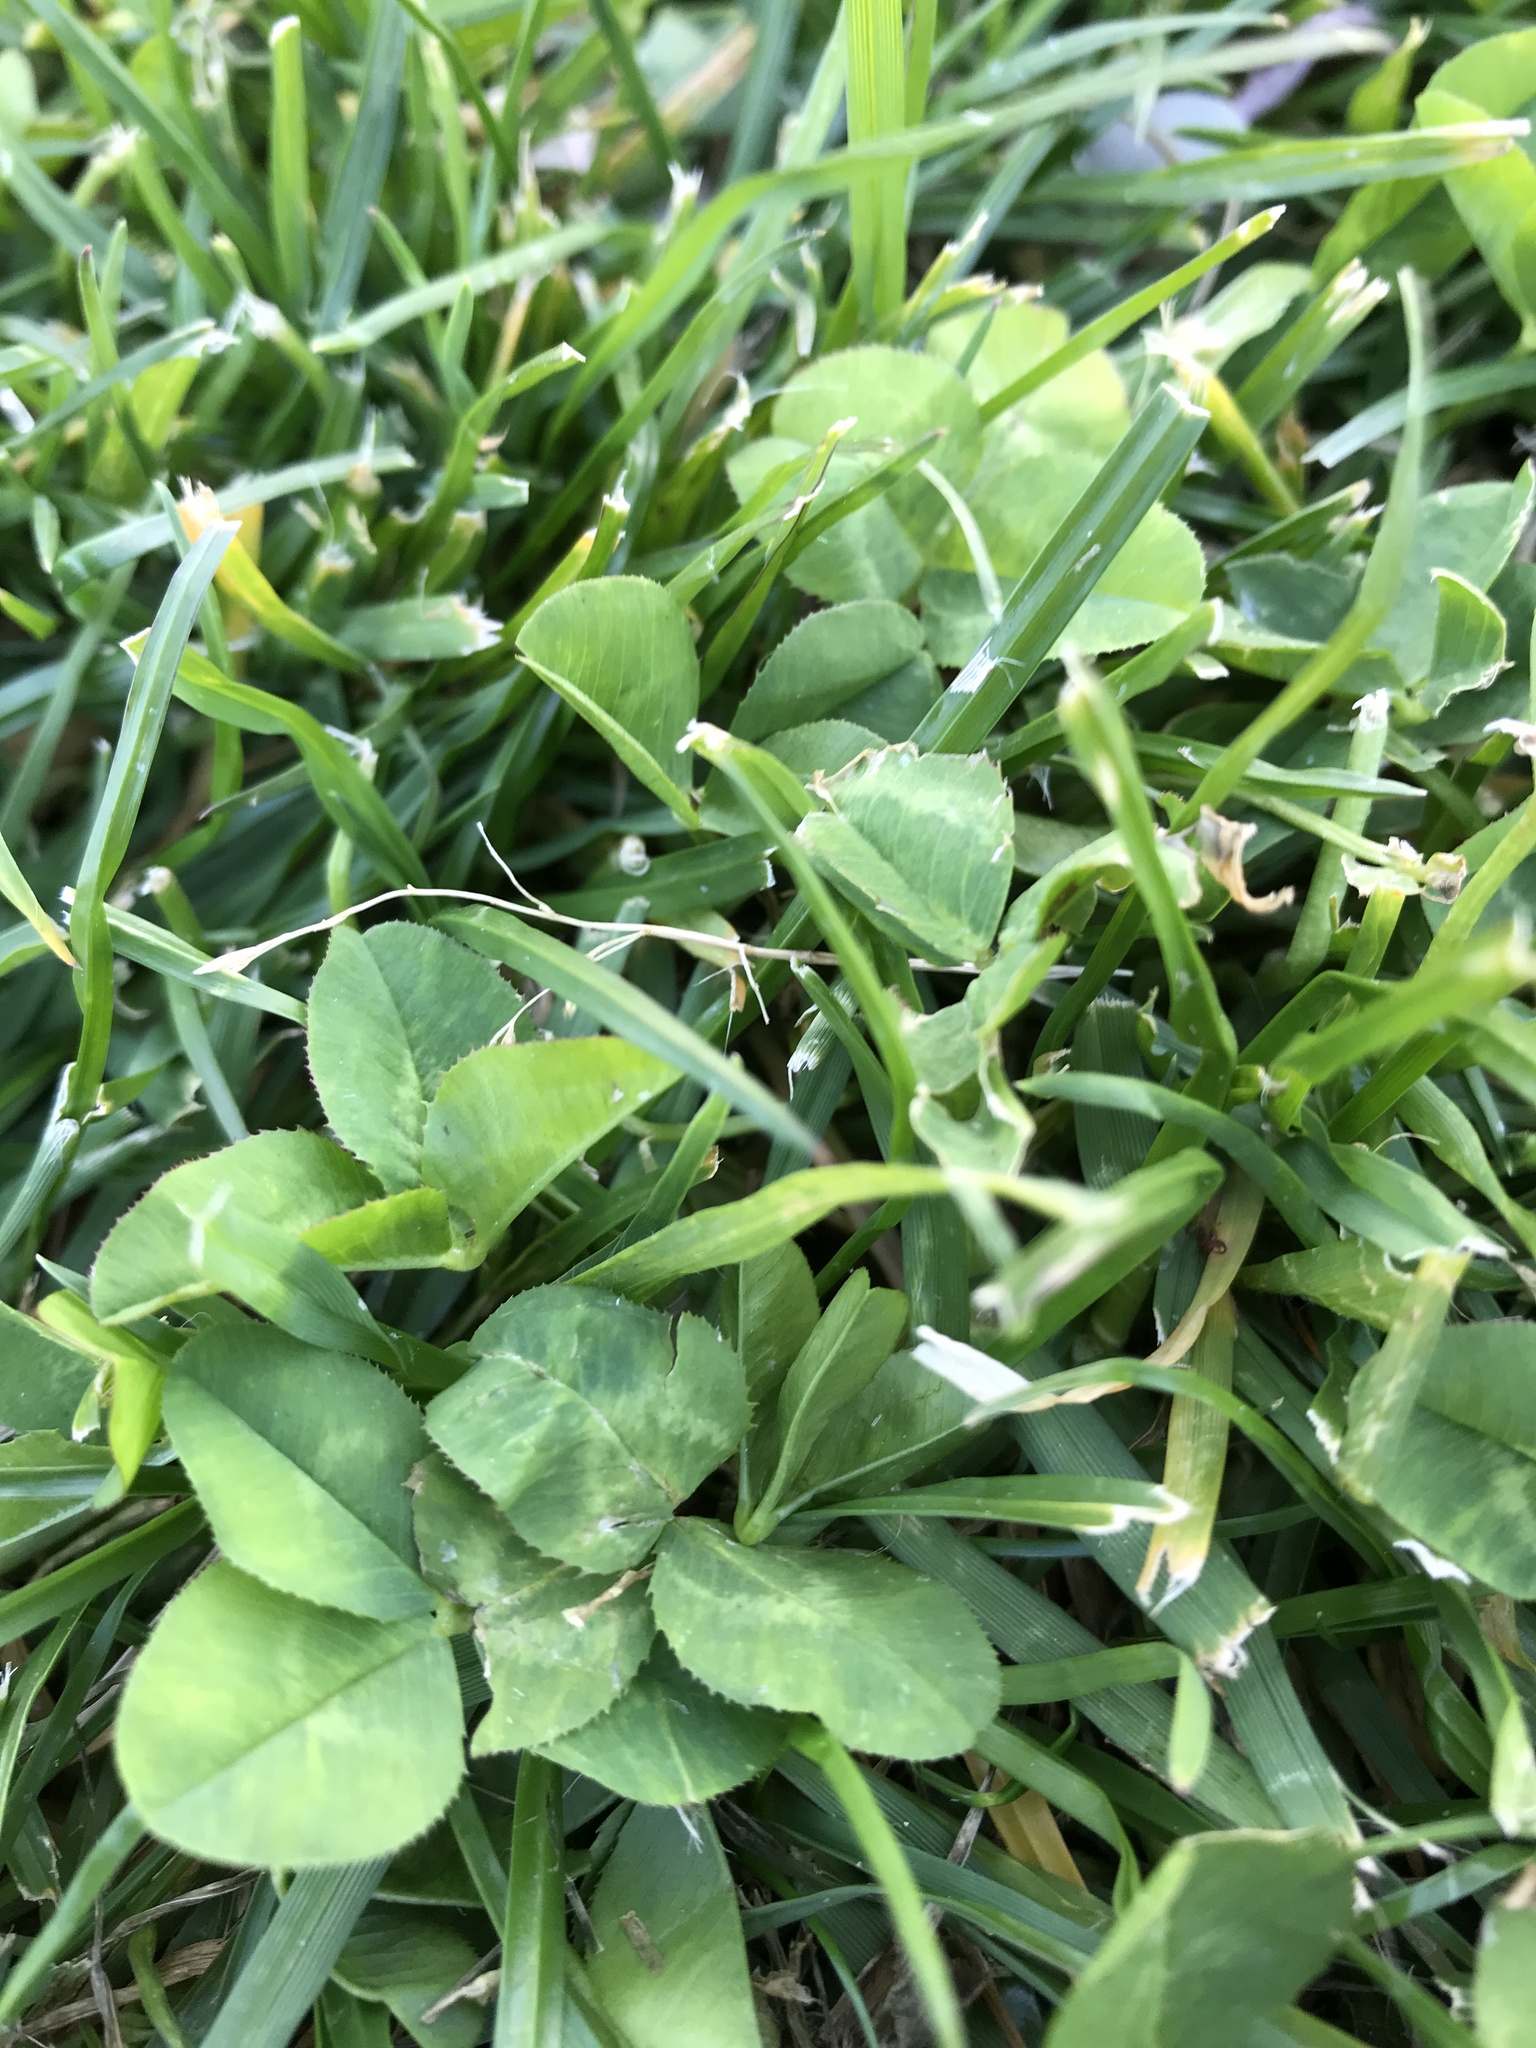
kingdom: Plantae
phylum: Tracheophyta
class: Magnoliopsida
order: Fabales
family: Fabaceae
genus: Trifolium
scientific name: Trifolium repens
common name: White clover
